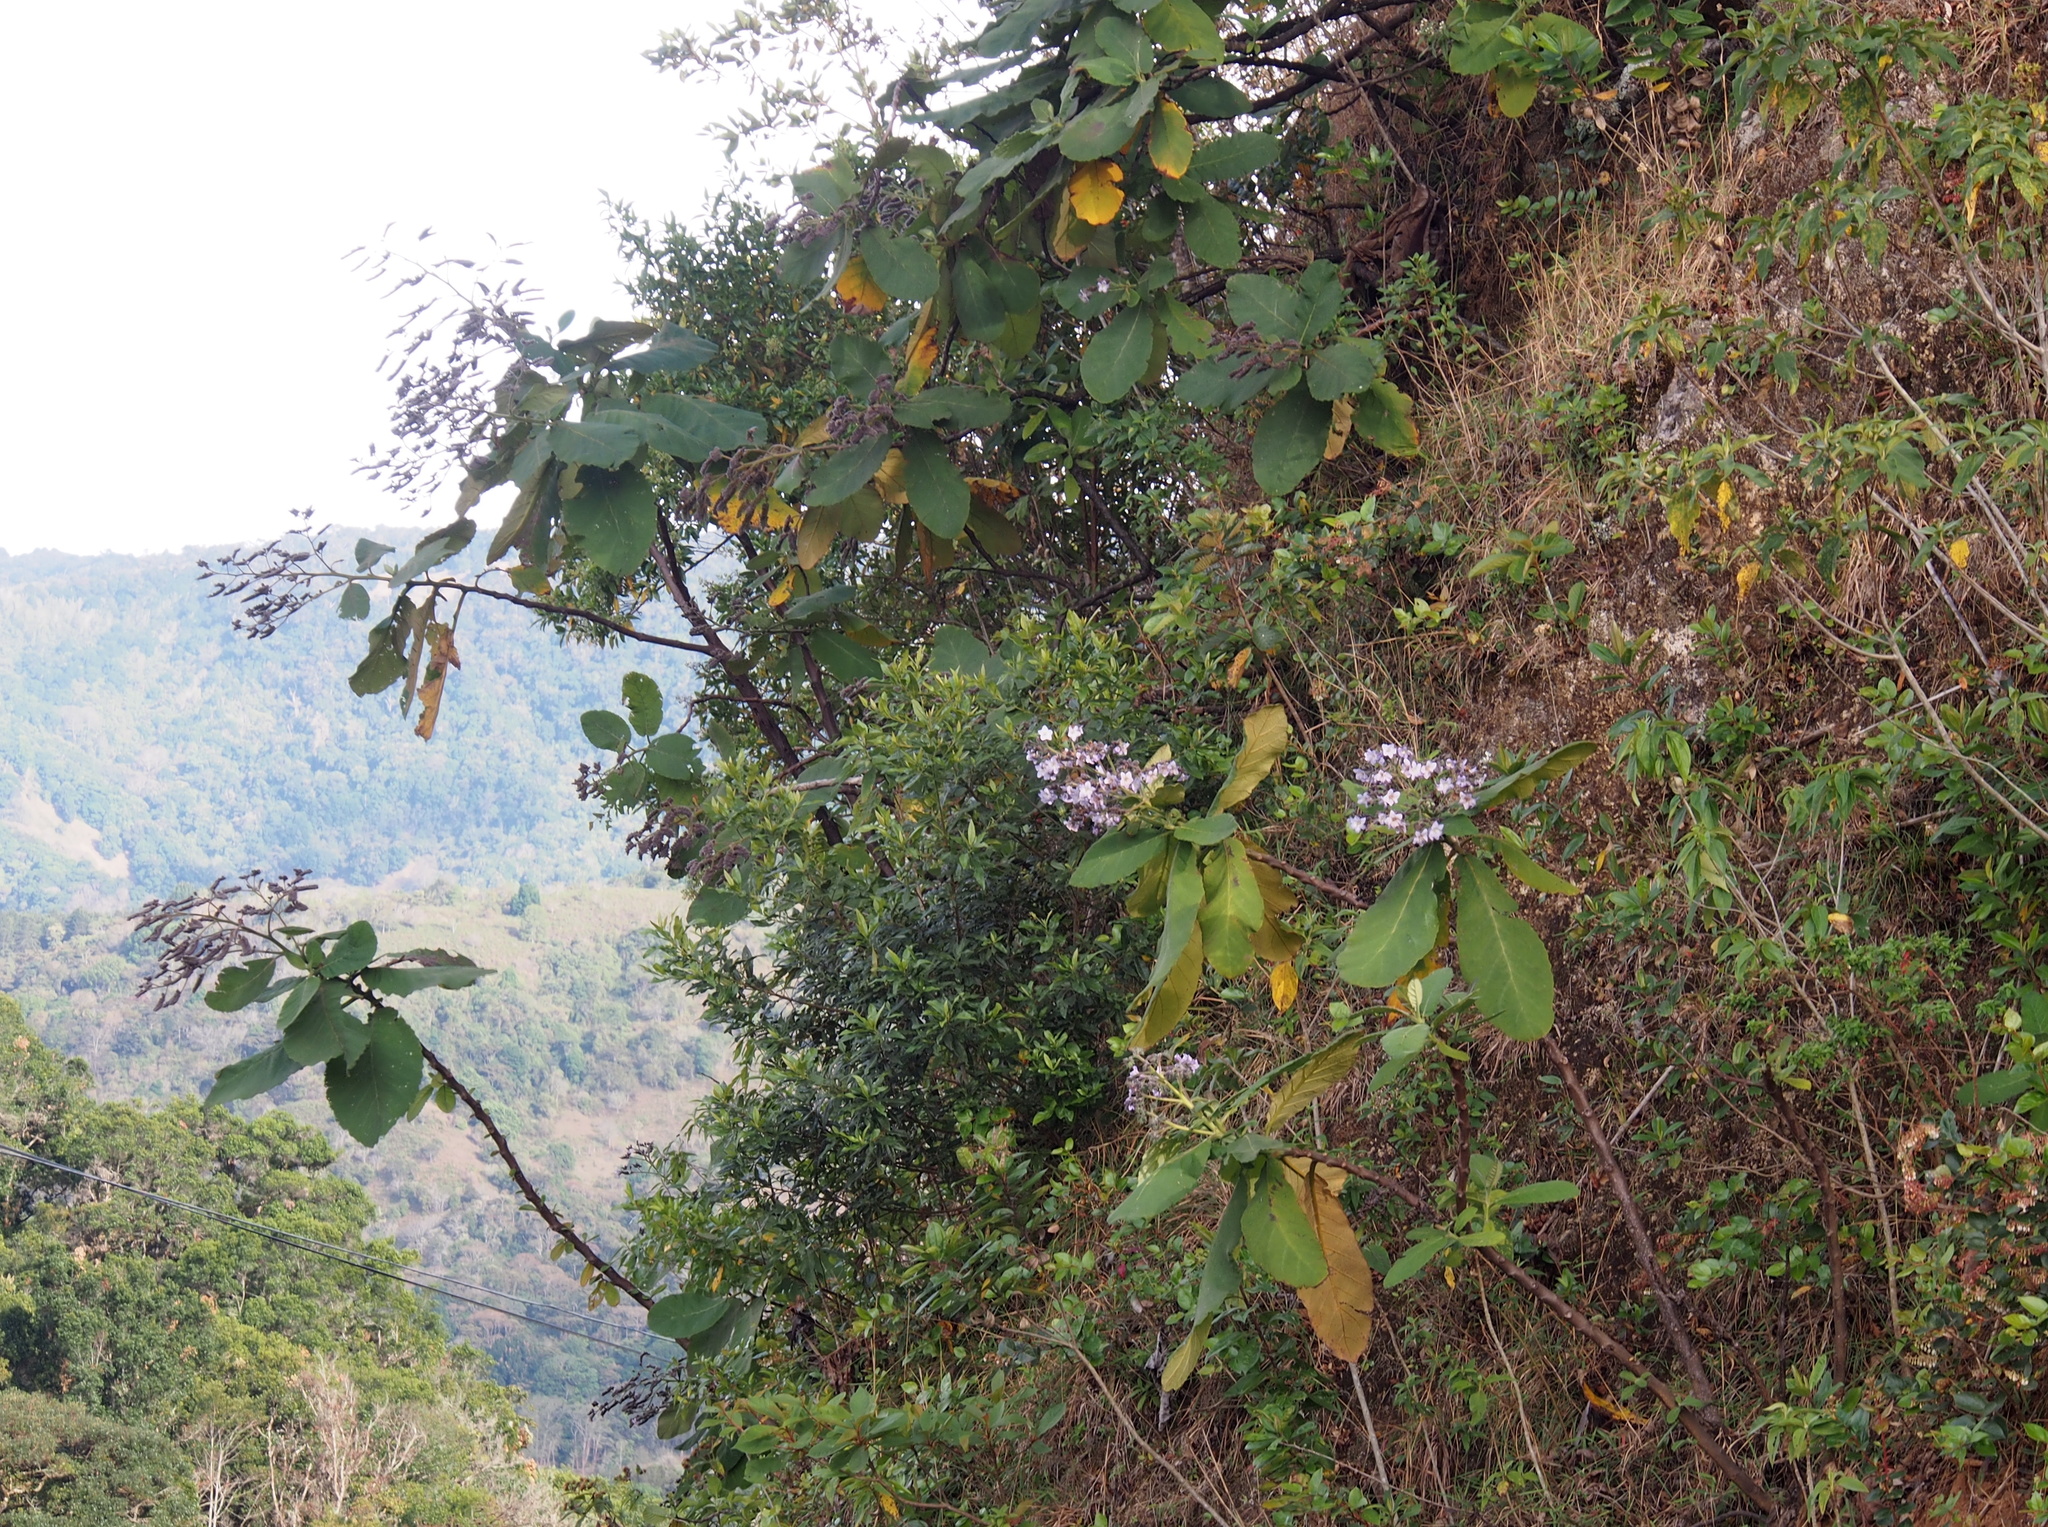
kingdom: Plantae
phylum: Tracheophyta
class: Magnoliopsida
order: Boraginales
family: Namaceae
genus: Wigandia
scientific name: Wigandia urens
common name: Caracus wigandia
